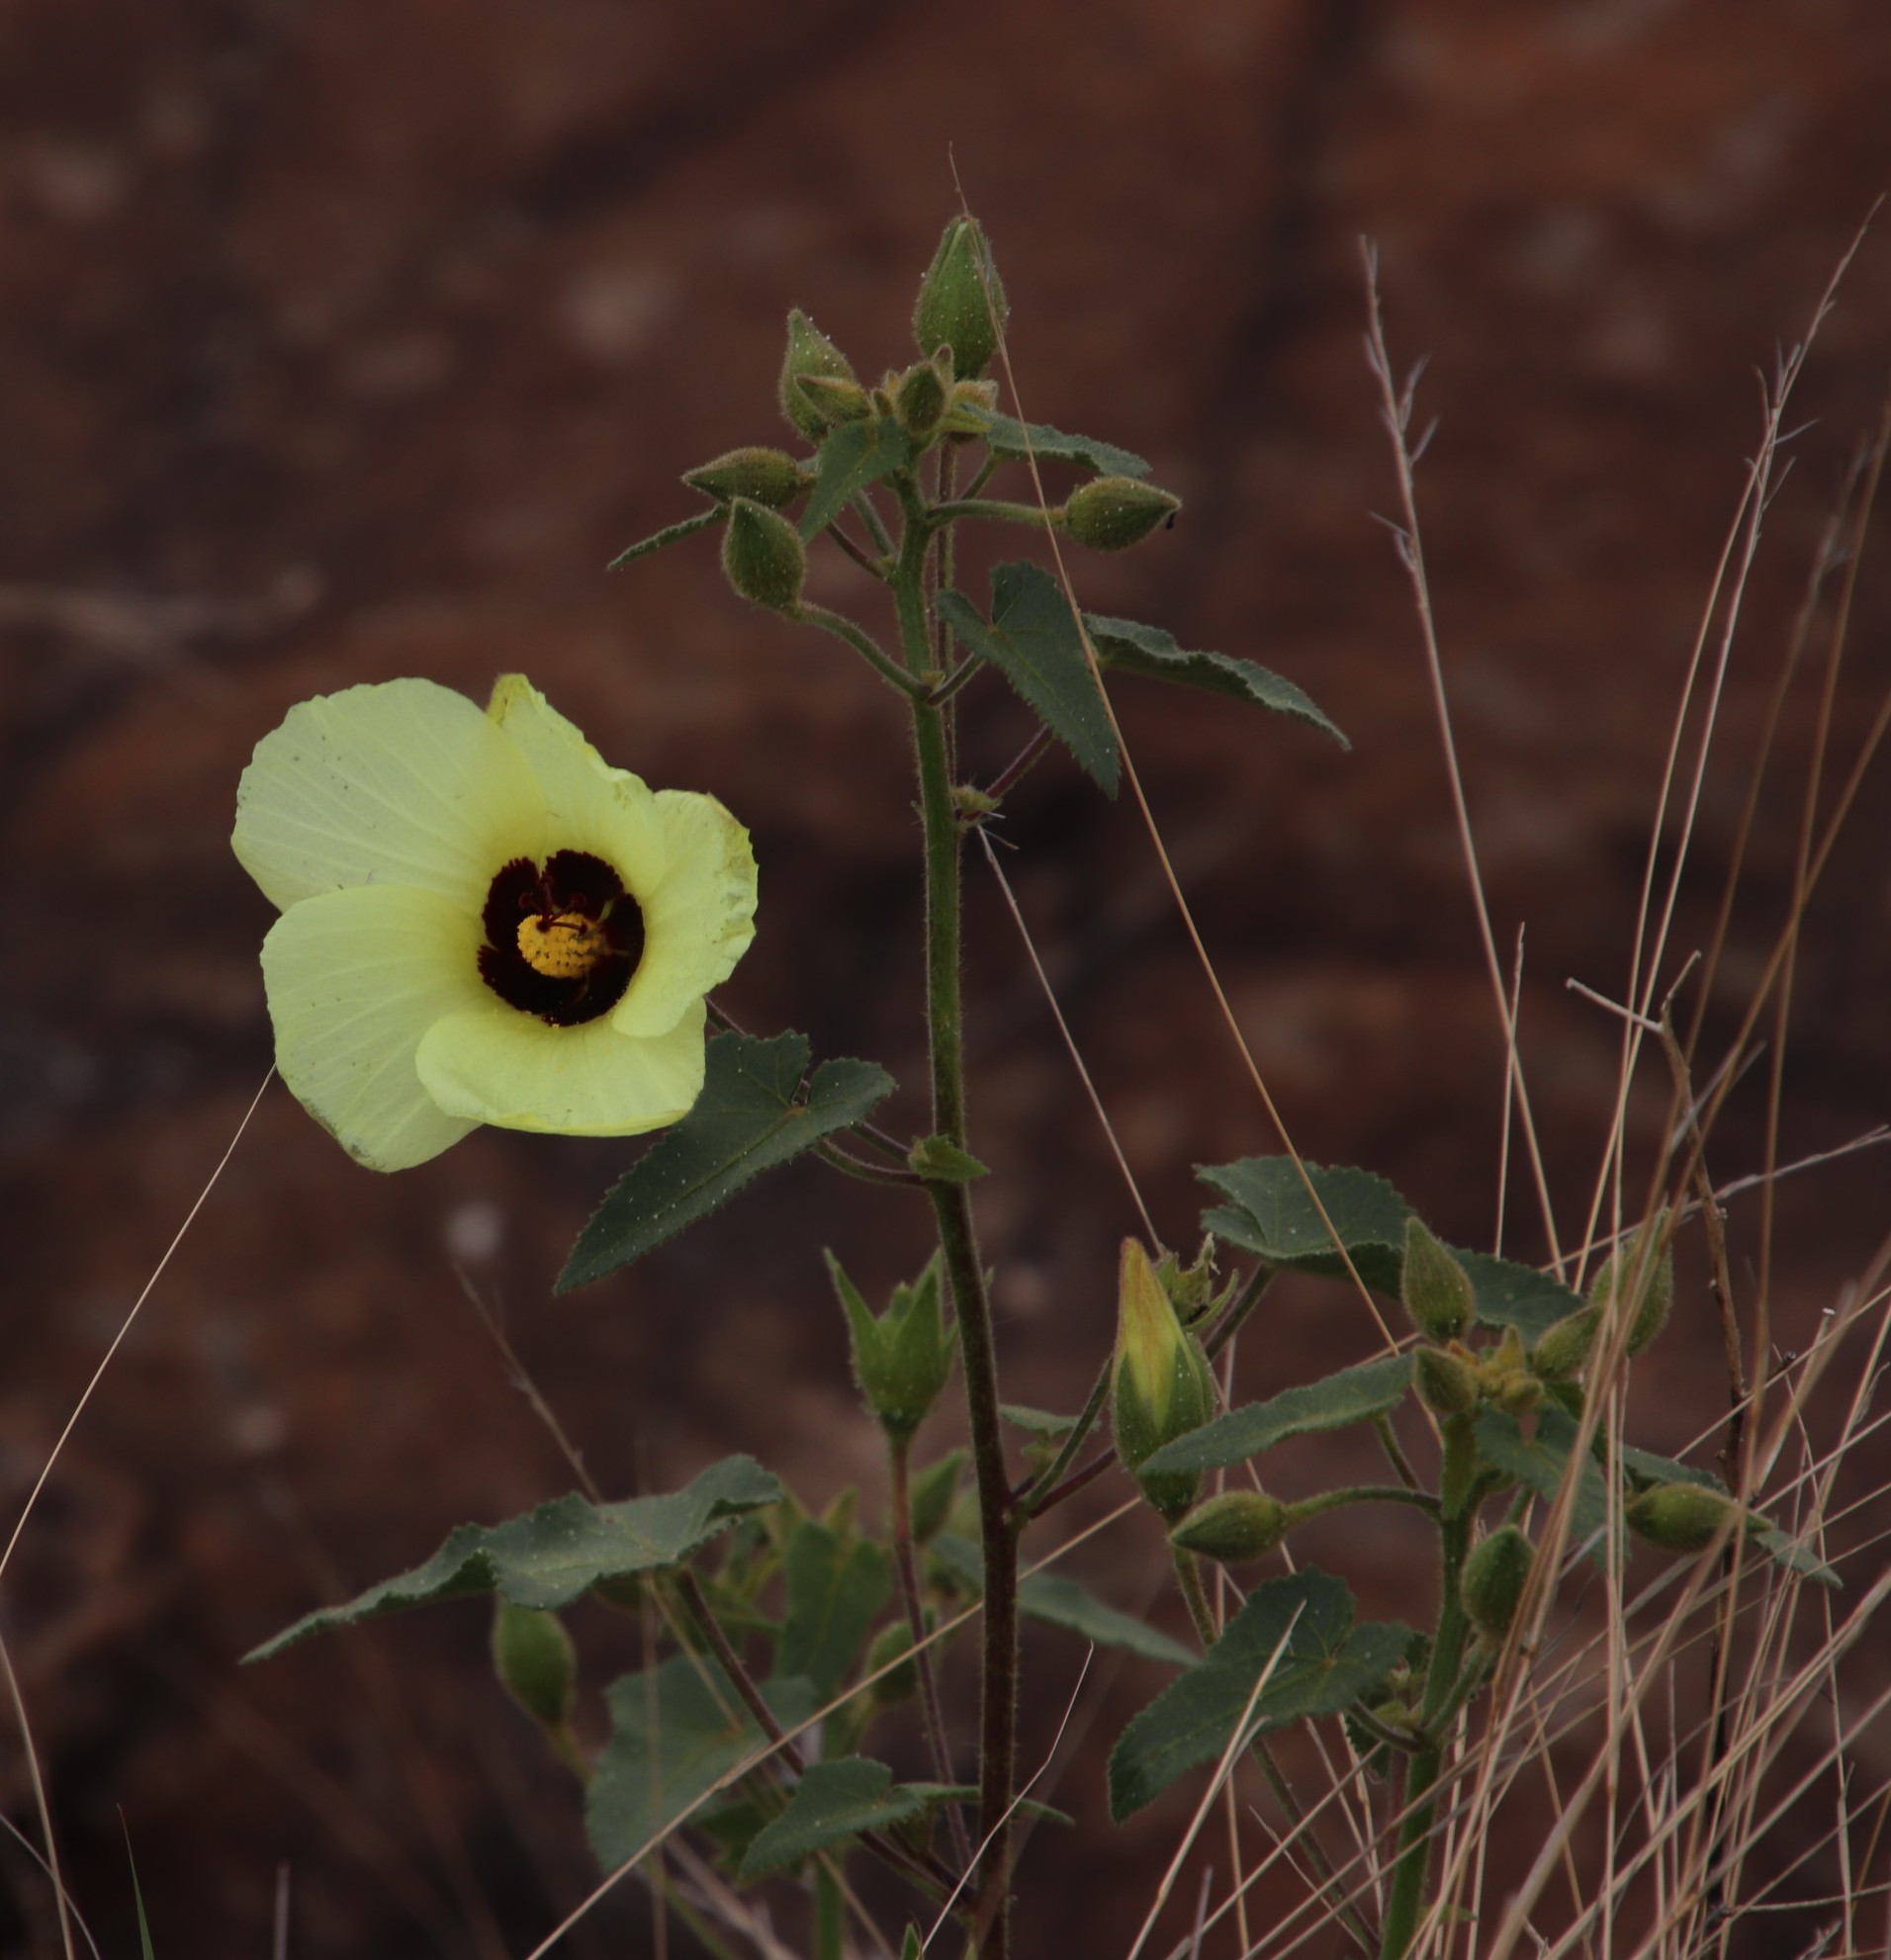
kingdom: Plantae
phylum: Tracheophyta
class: Magnoliopsida
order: Malvales
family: Malvaceae
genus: Hibiscus
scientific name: Hibiscus engleri
